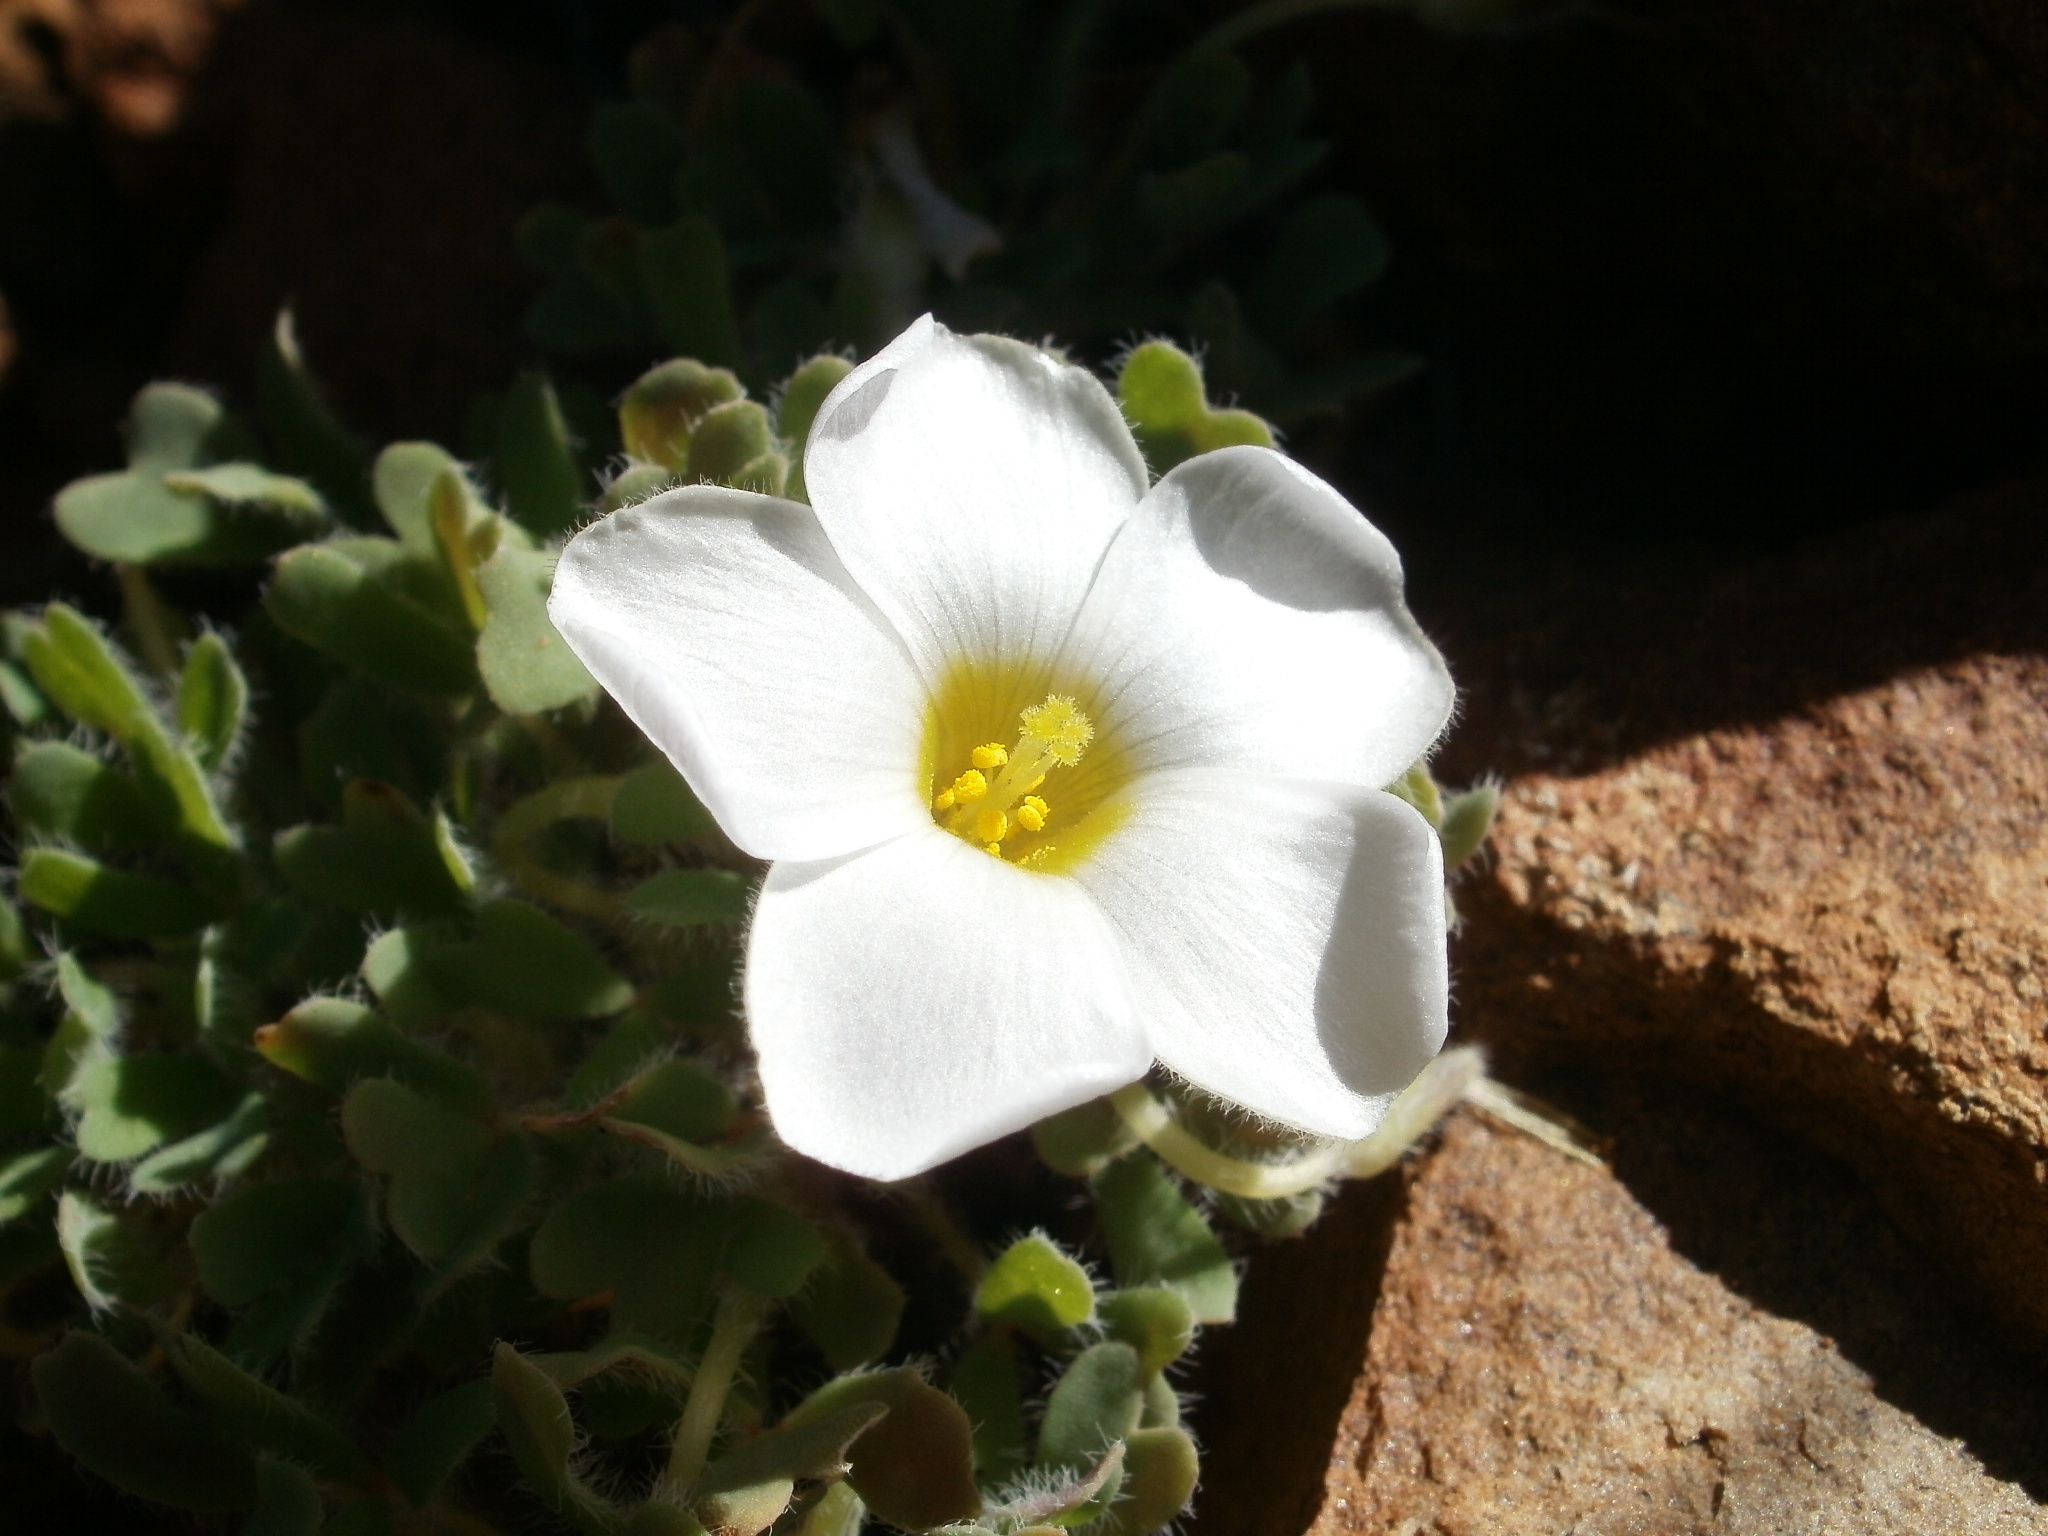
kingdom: Plantae
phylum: Tracheophyta
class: Magnoliopsida
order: Oxalidales
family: Oxalidaceae
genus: Oxalis
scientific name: Oxalis annae
